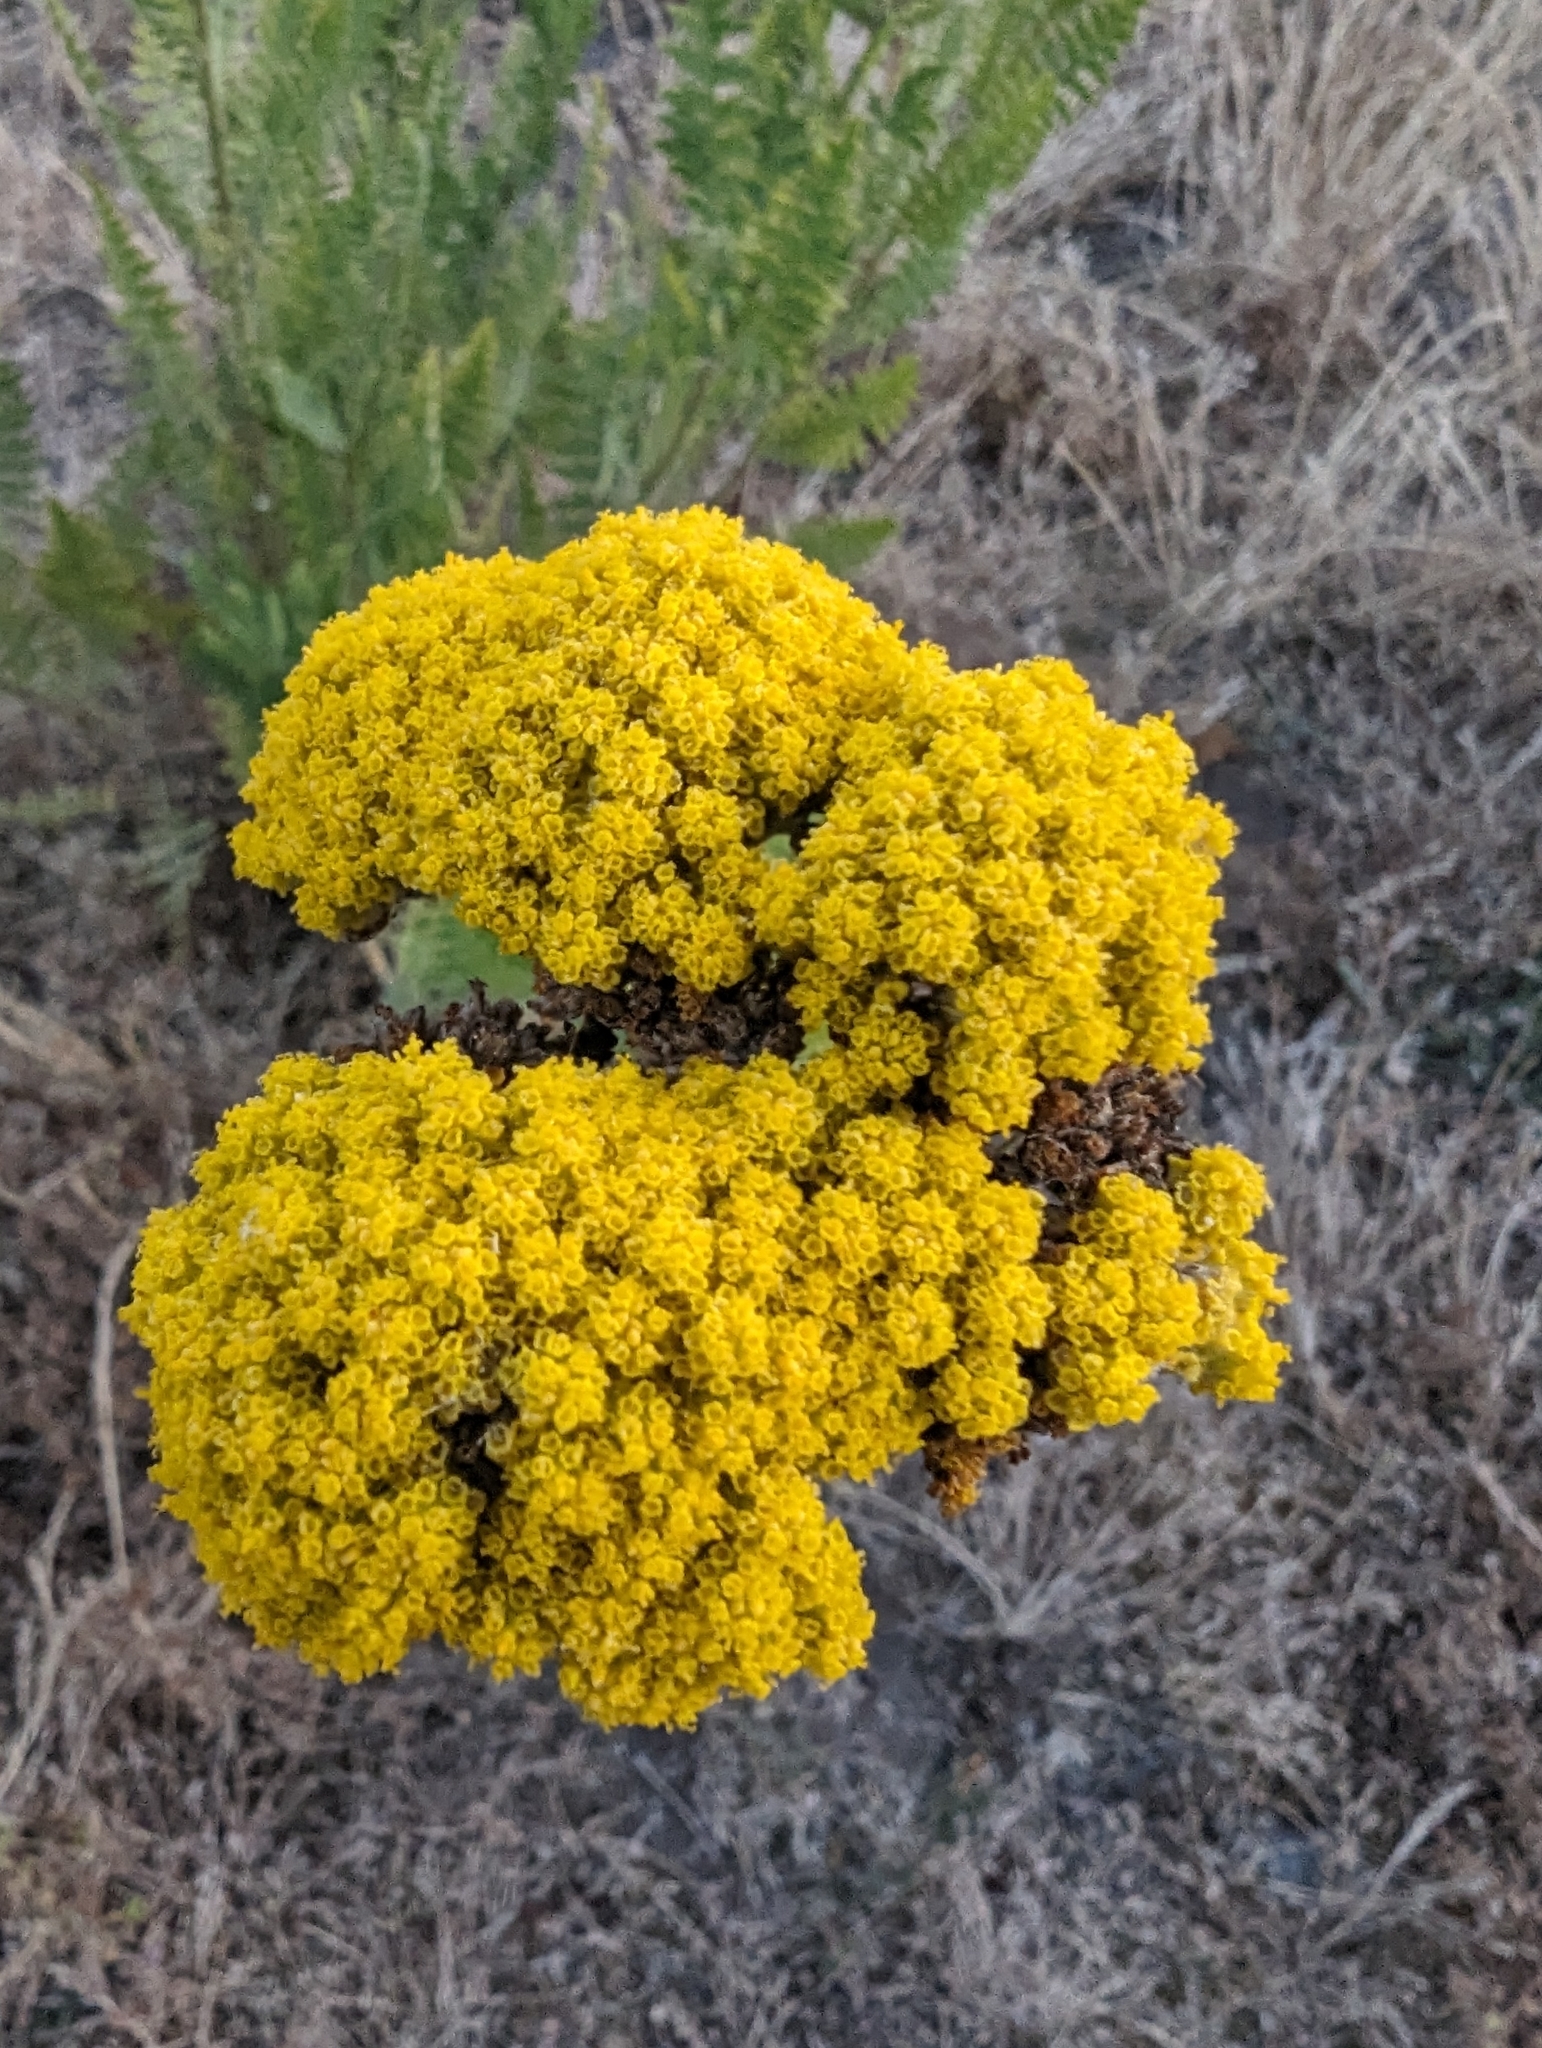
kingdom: Plantae
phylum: Tracheophyta
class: Magnoliopsida
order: Asterales
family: Asteraceae
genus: Achillea
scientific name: Achillea filipendulina
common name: Fernleaf yarrow
